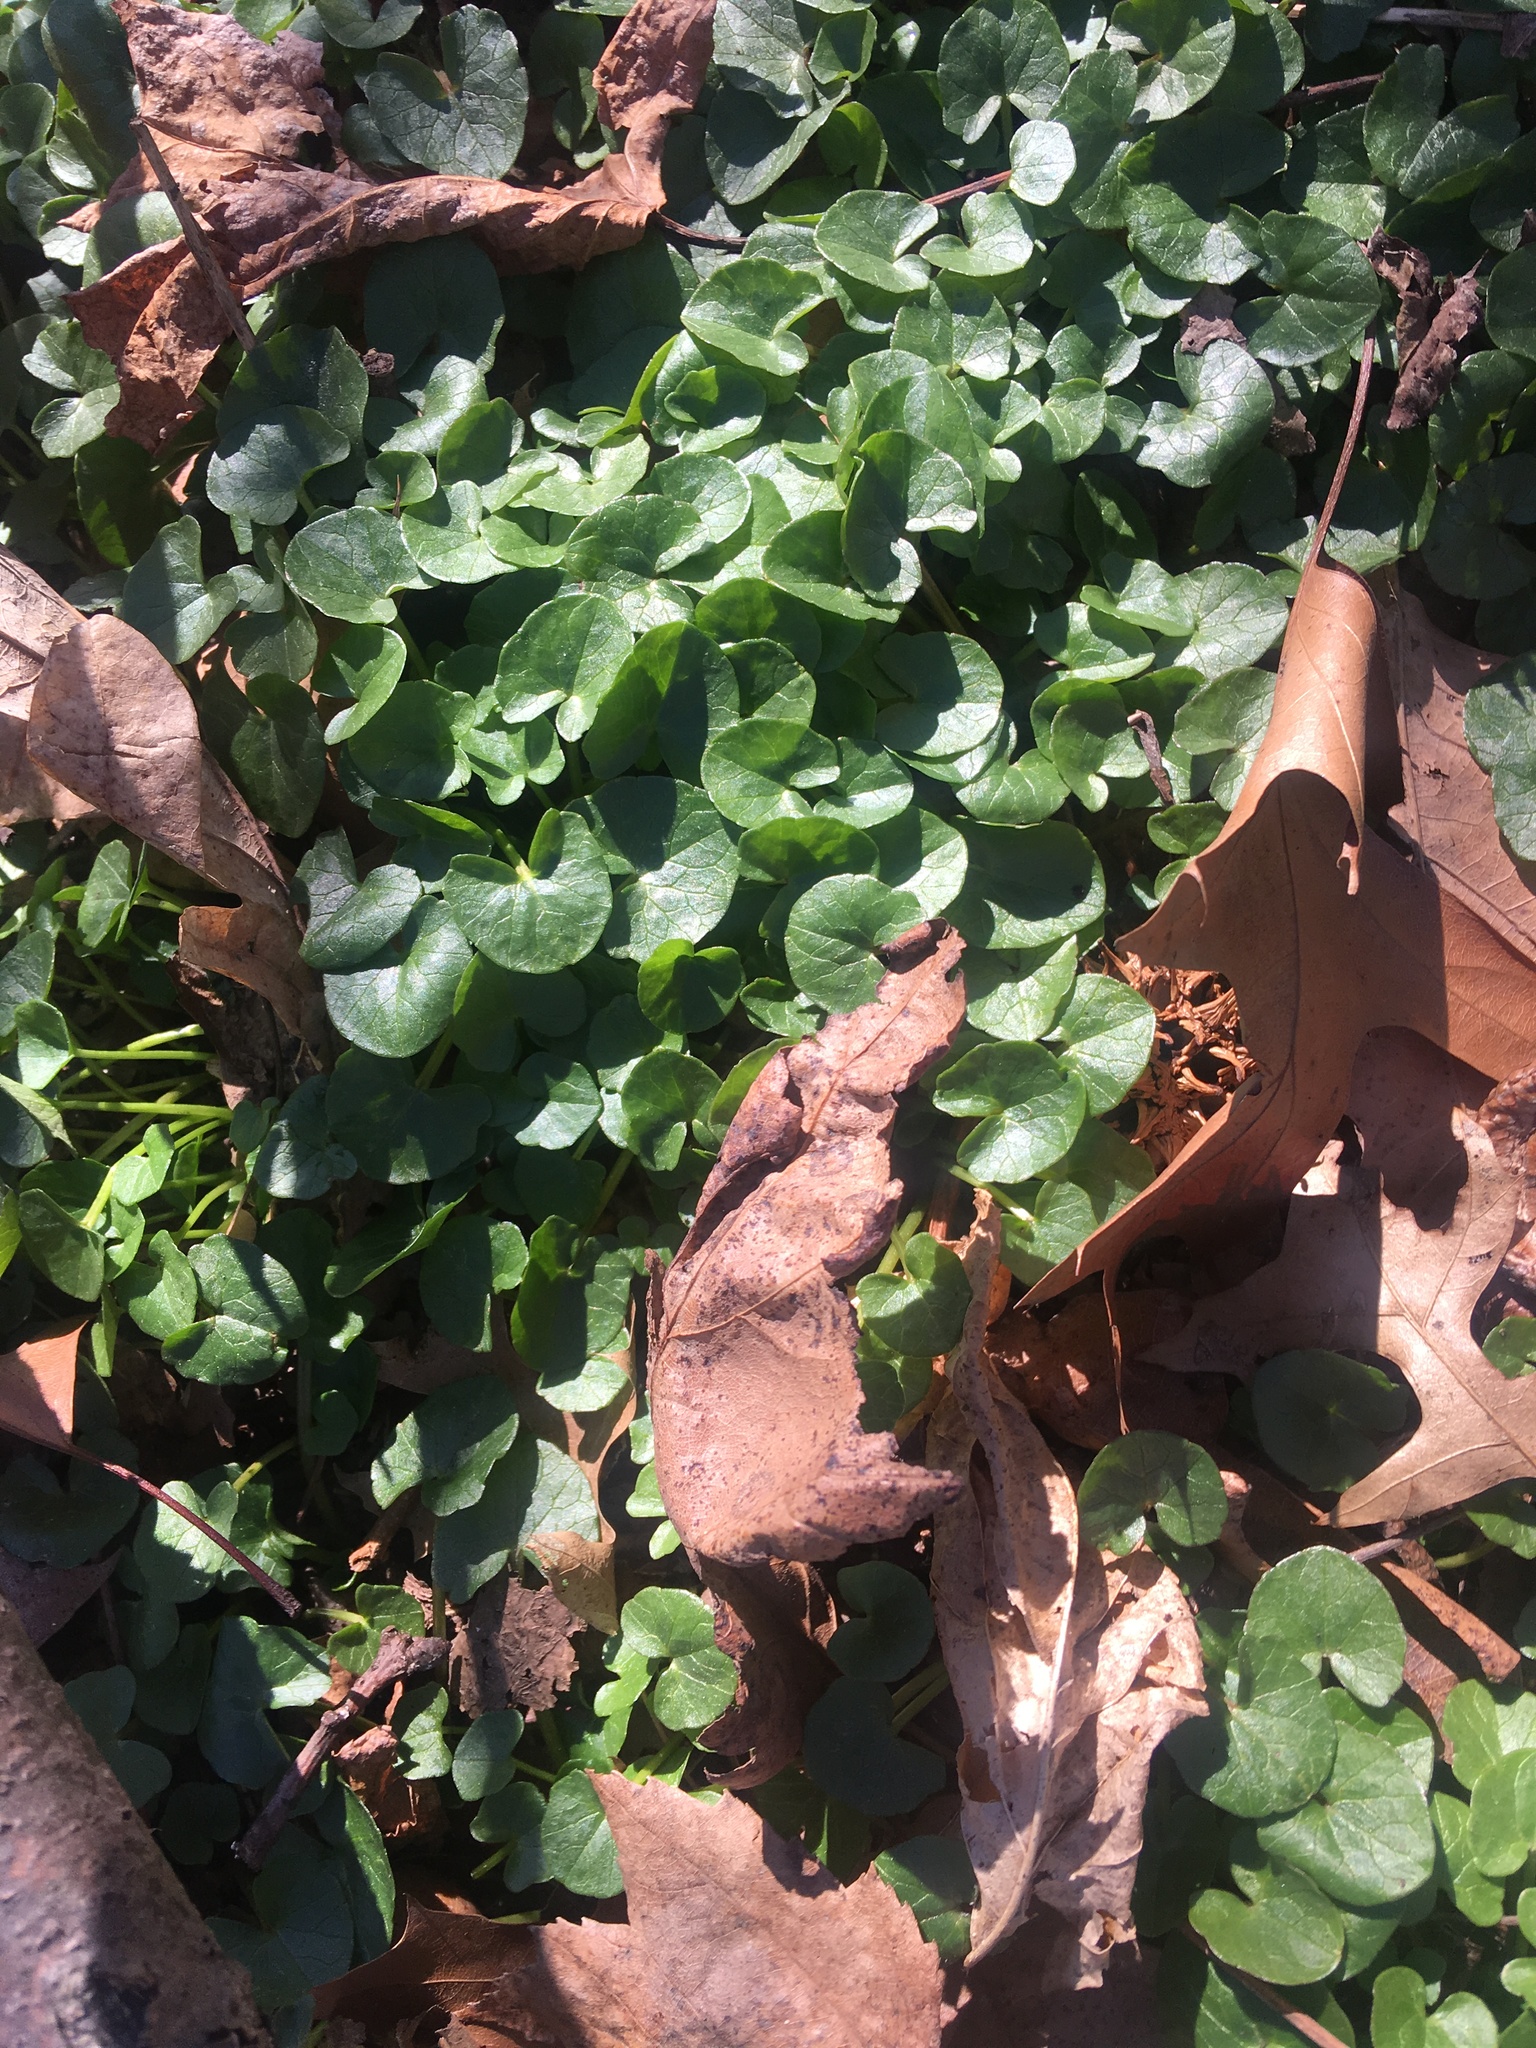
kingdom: Plantae
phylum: Tracheophyta
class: Magnoliopsida
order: Ranunculales
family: Ranunculaceae
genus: Ficaria
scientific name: Ficaria verna
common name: Lesser celandine
